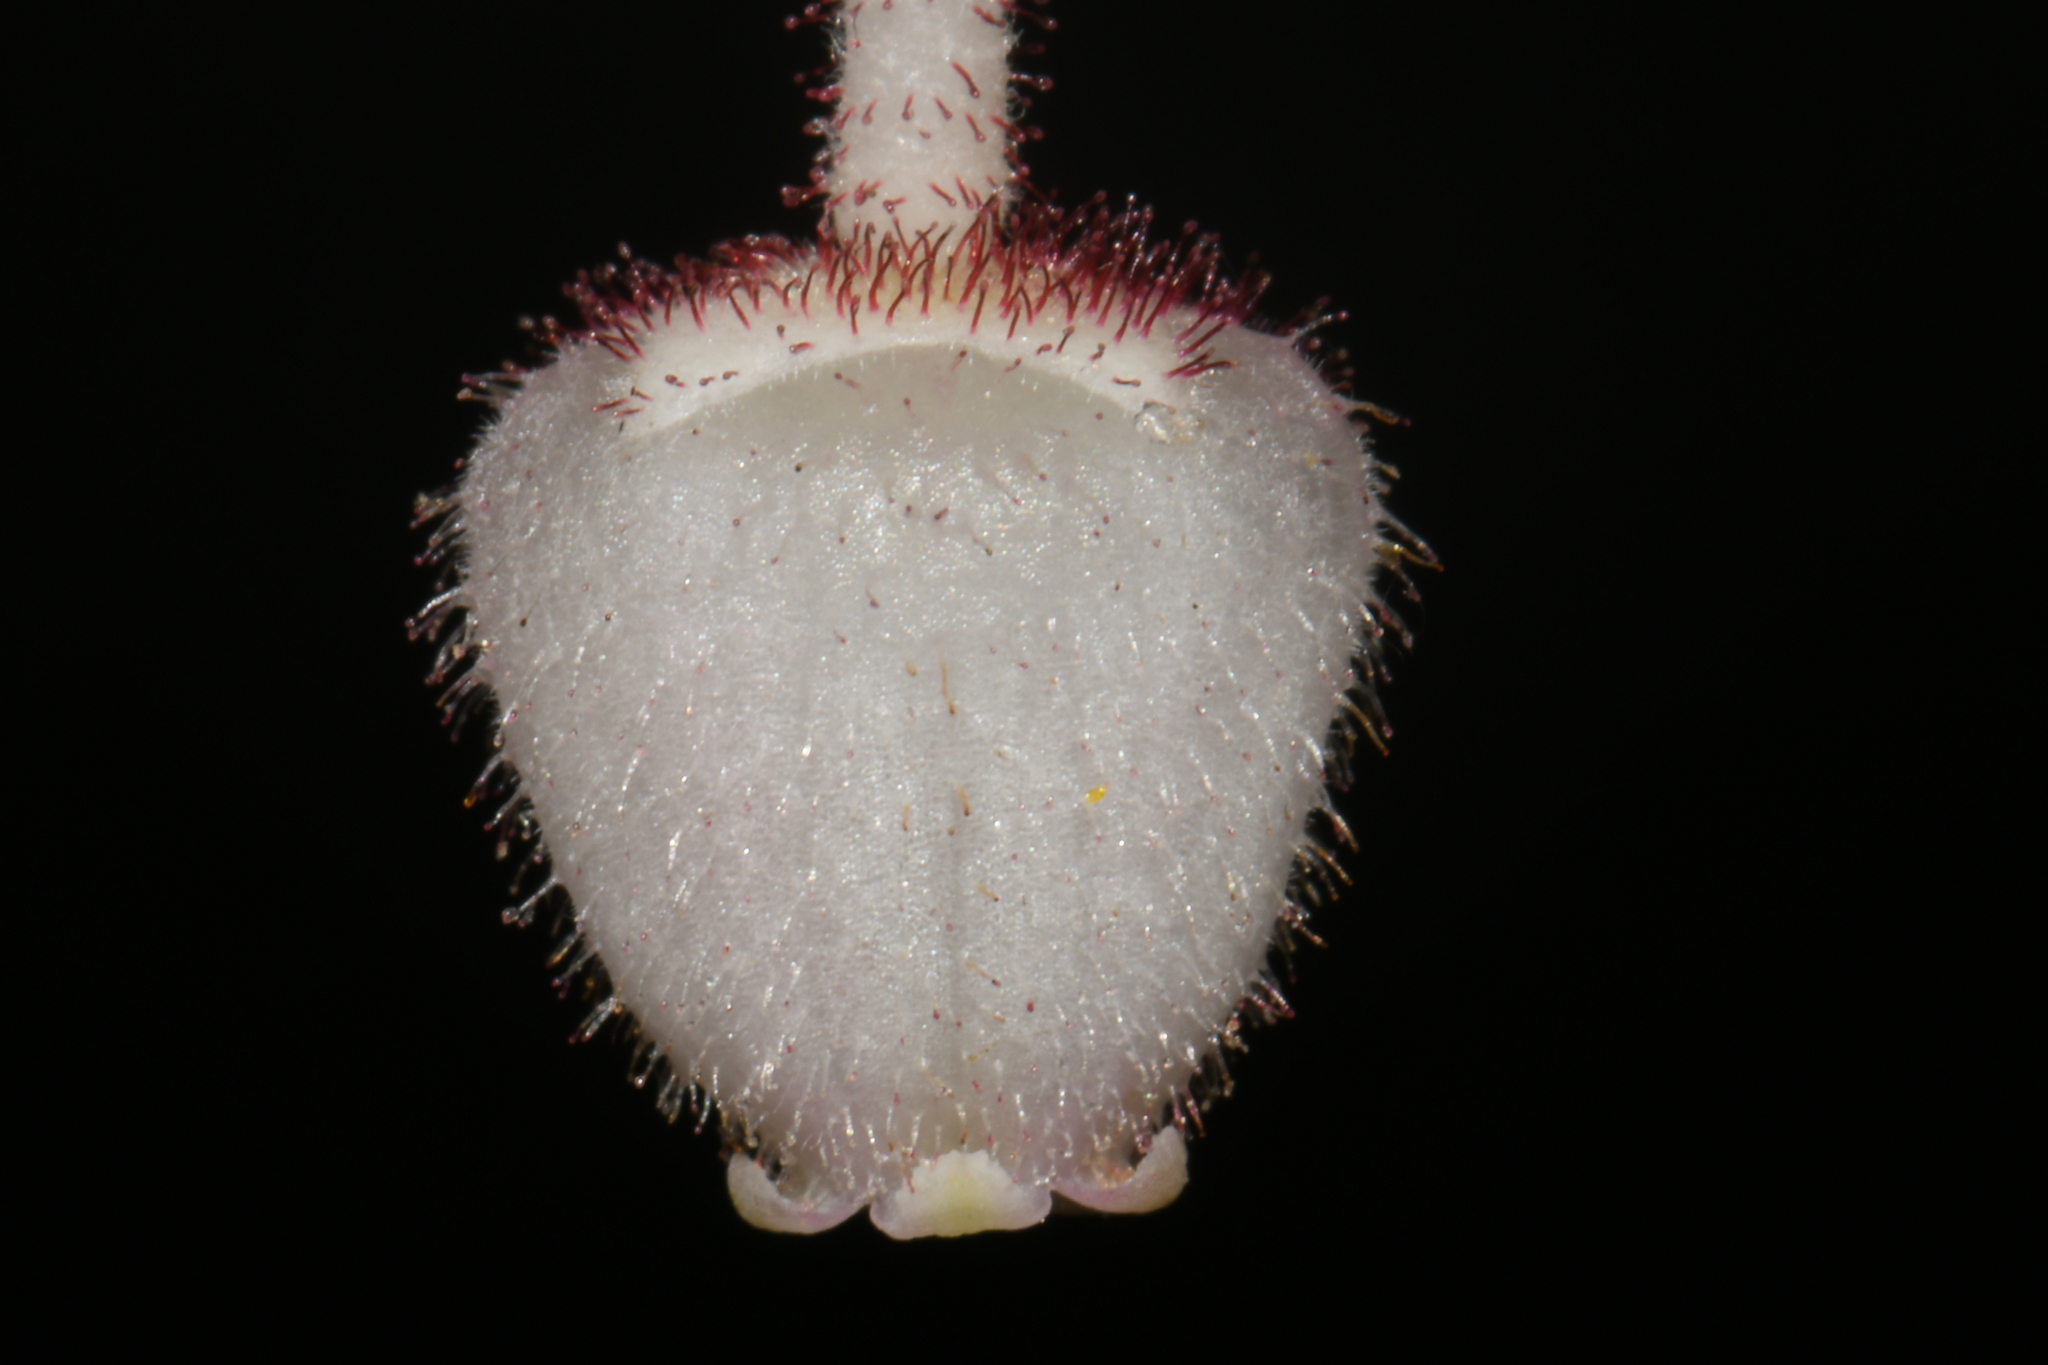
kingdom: Plantae
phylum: Tracheophyta
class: Magnoliopsida
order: Ericales
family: Ericaceae
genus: Gaultheria
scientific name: Gaultheria shallon
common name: Shallon
